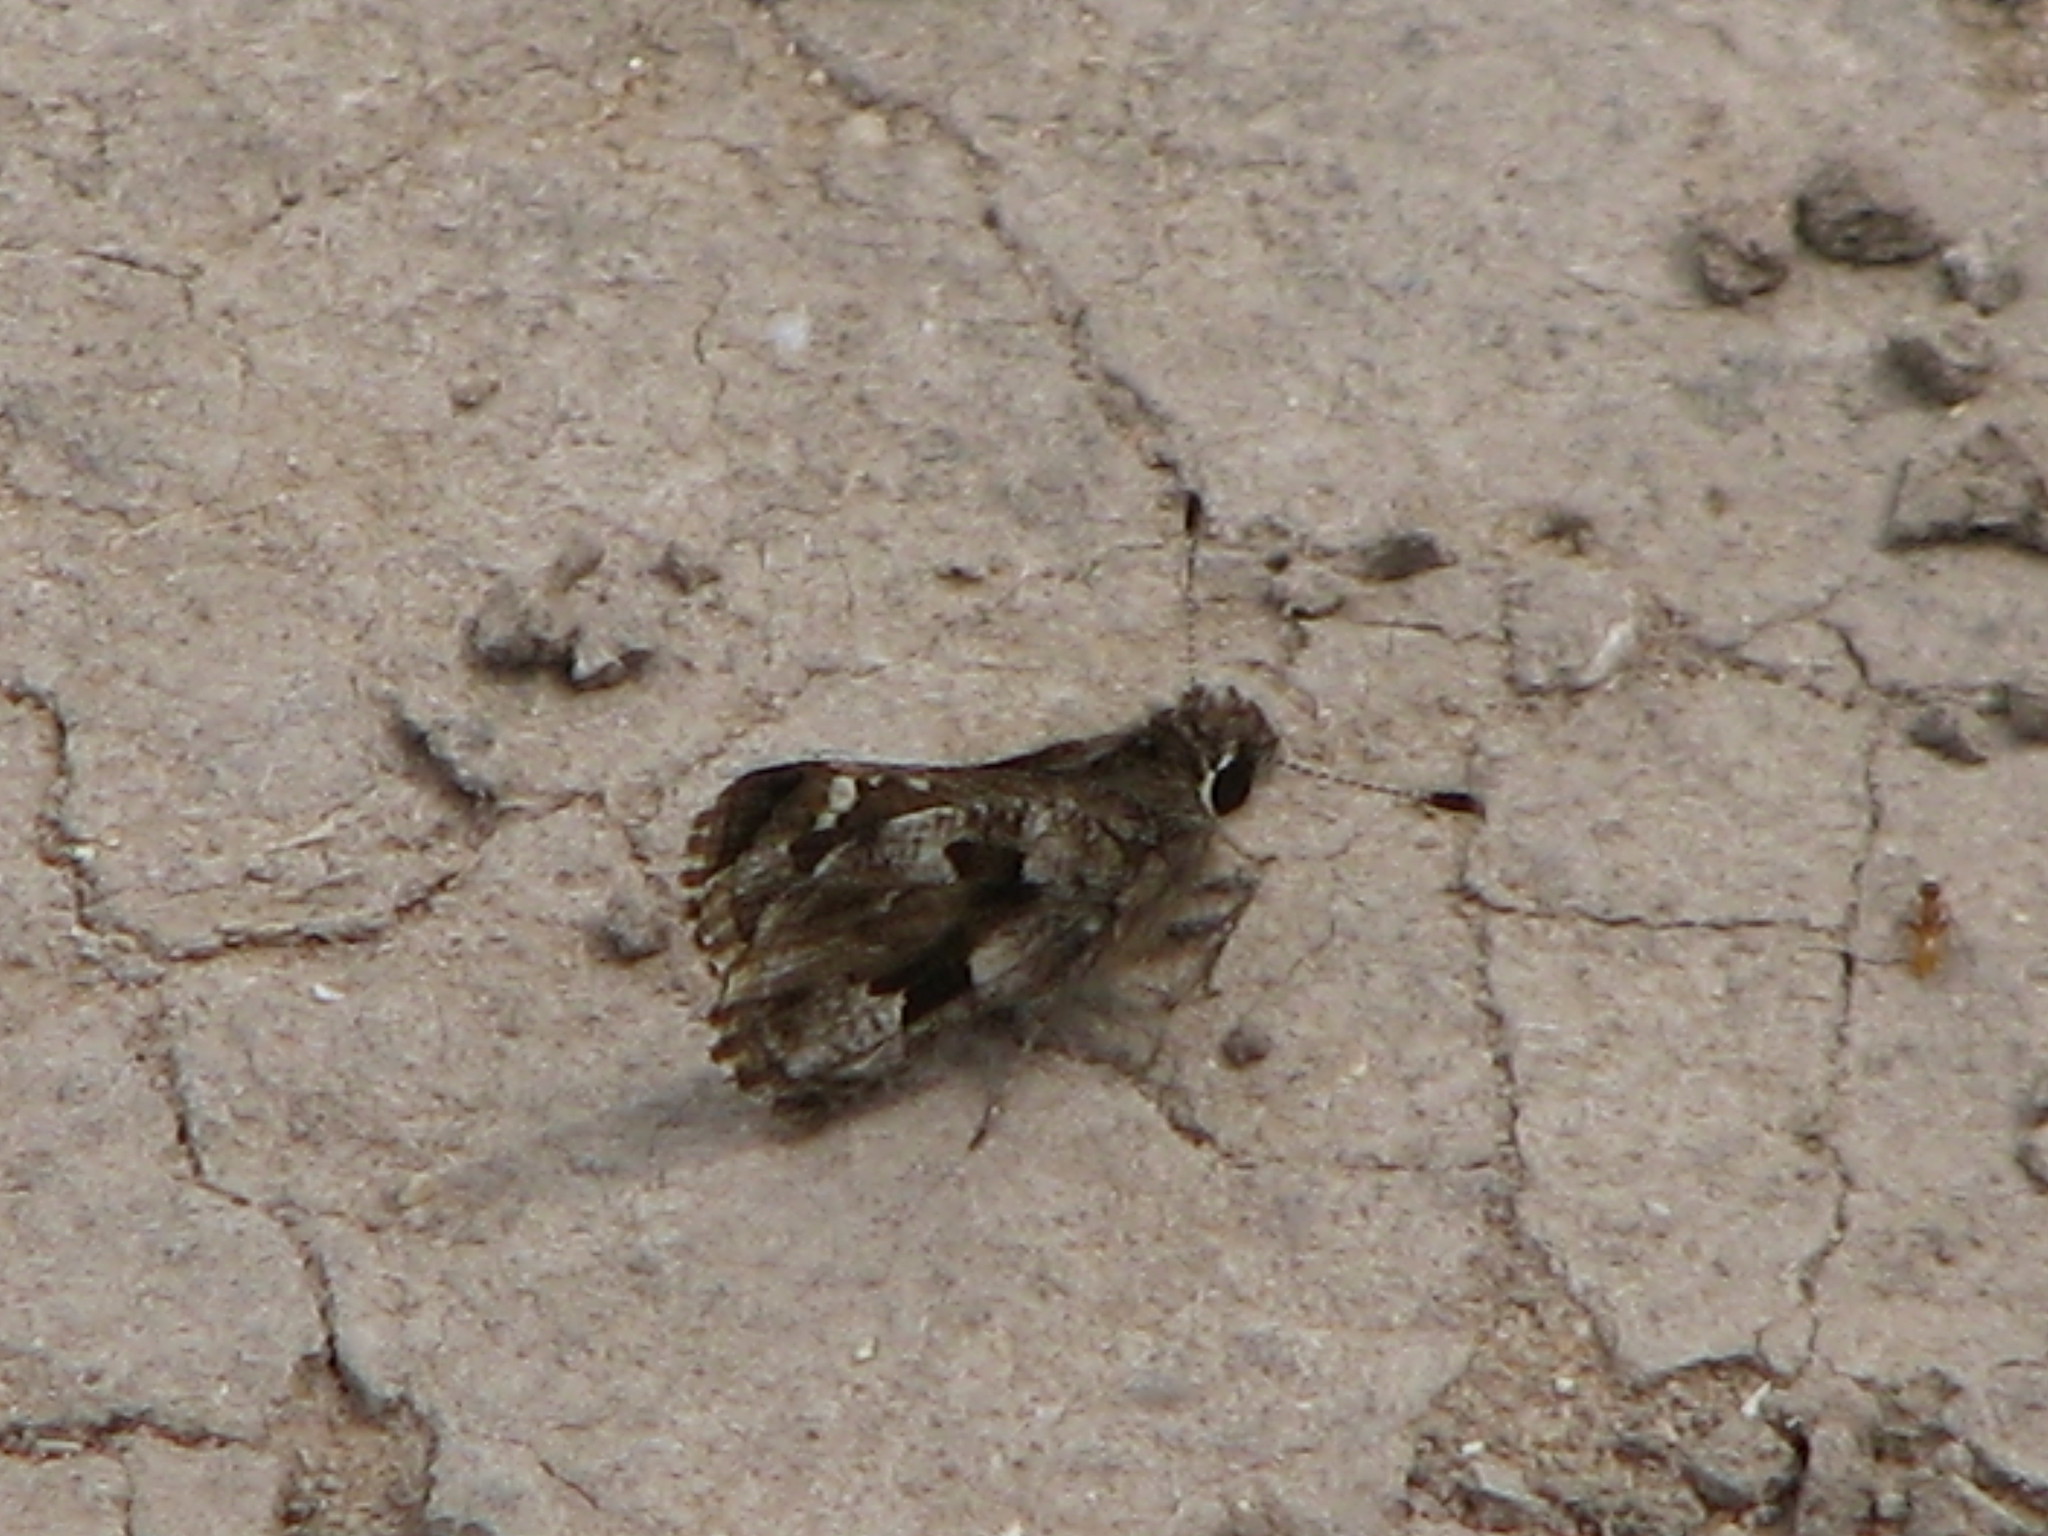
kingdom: Animalia
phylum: Arthropoda
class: Insecta
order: Lepidoptera
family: Hesperiidae
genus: Mastor
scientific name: Mastor nysa
